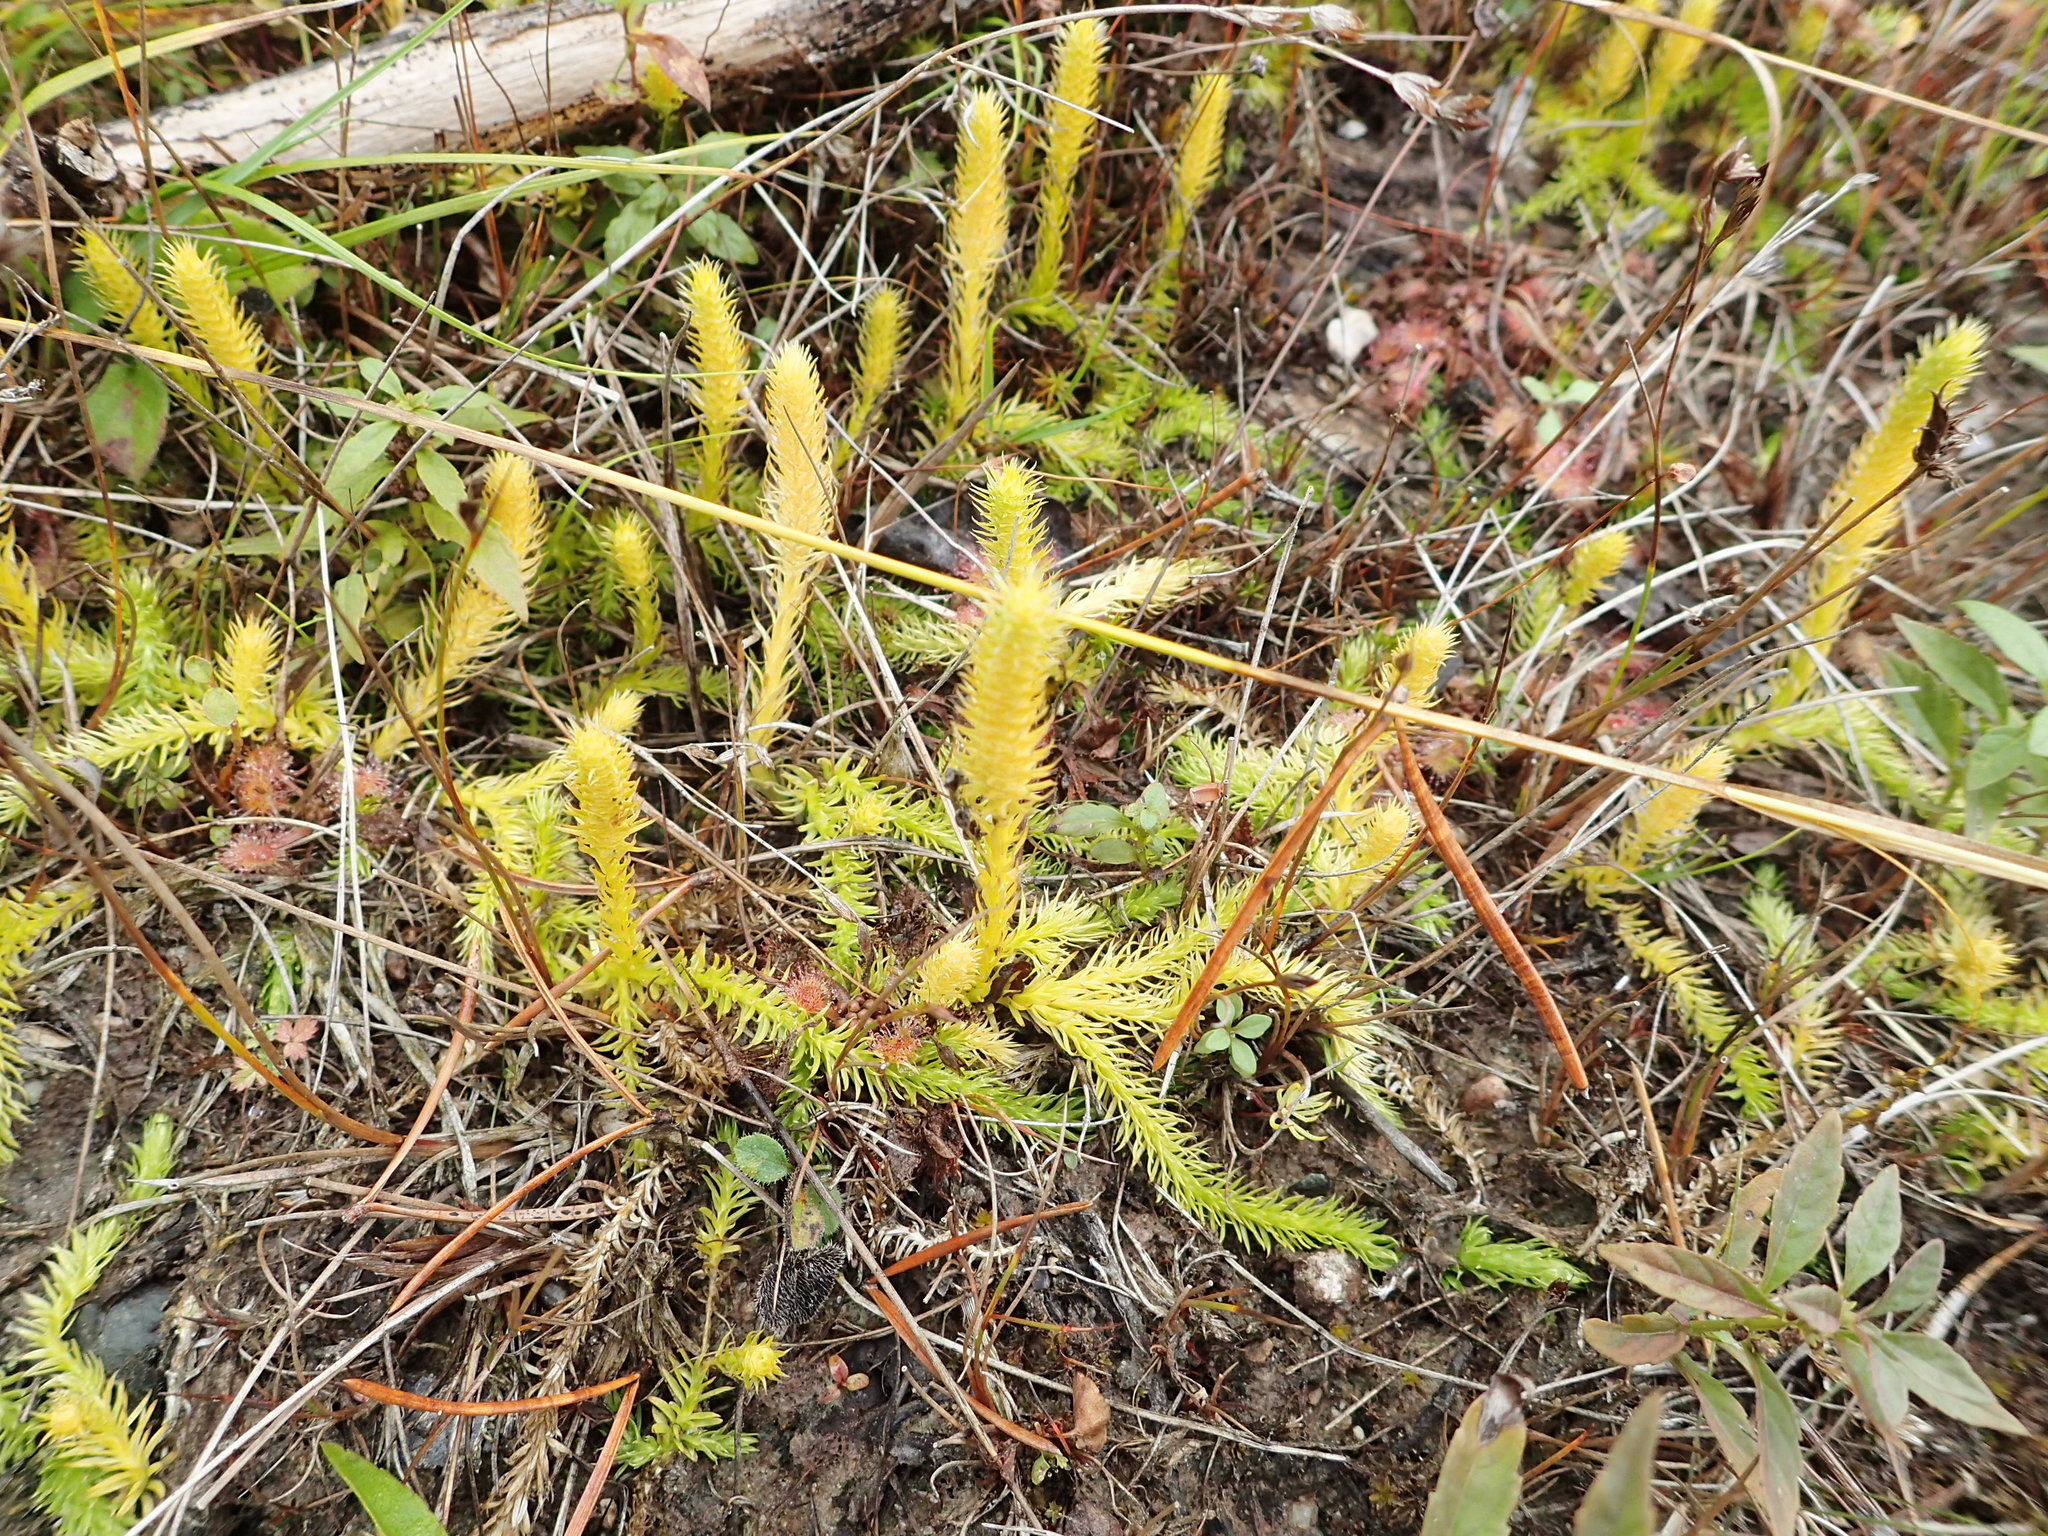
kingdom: Plantae
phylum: Tracheophyta
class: Lycopodiopsida
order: Lycopodiales
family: Lycopodiaceae
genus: Lycopodiella
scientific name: Lycopodiella inundata
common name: Marsh clubmoss
